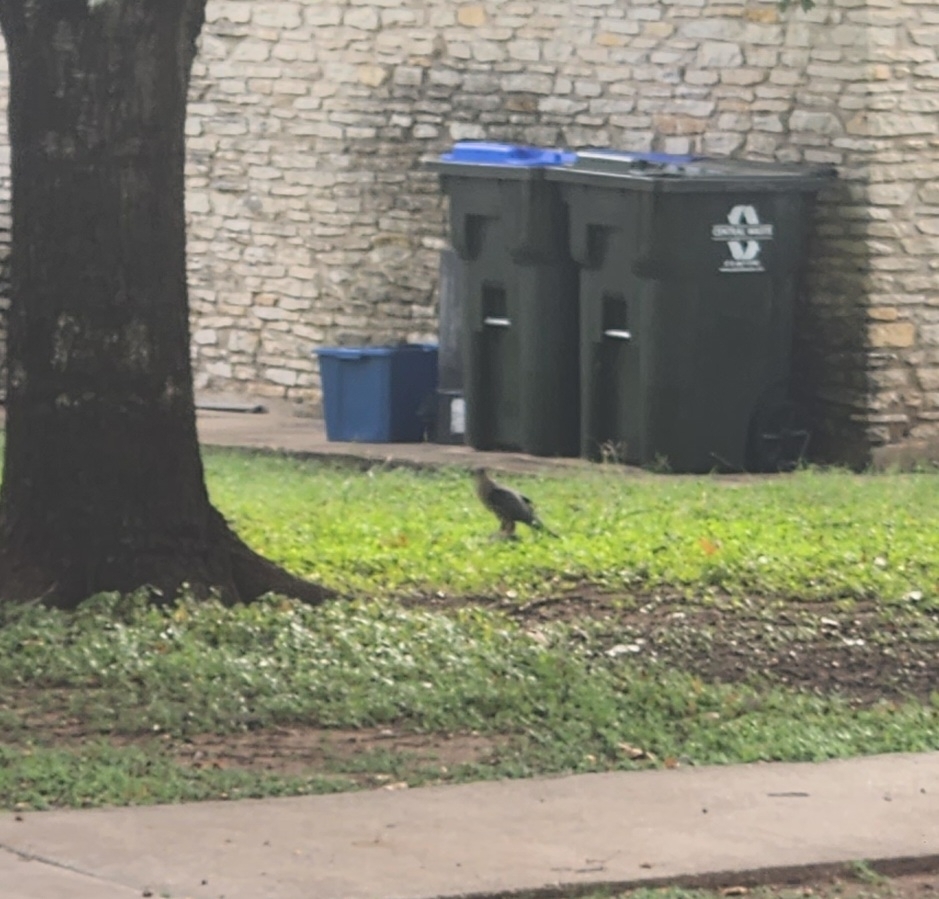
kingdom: Animalia
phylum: Chordata
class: Aves
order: Accipitriformes
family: Accipitridae
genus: Accipiter
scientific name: Accipiter cooperii
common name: Cooper's hawk
